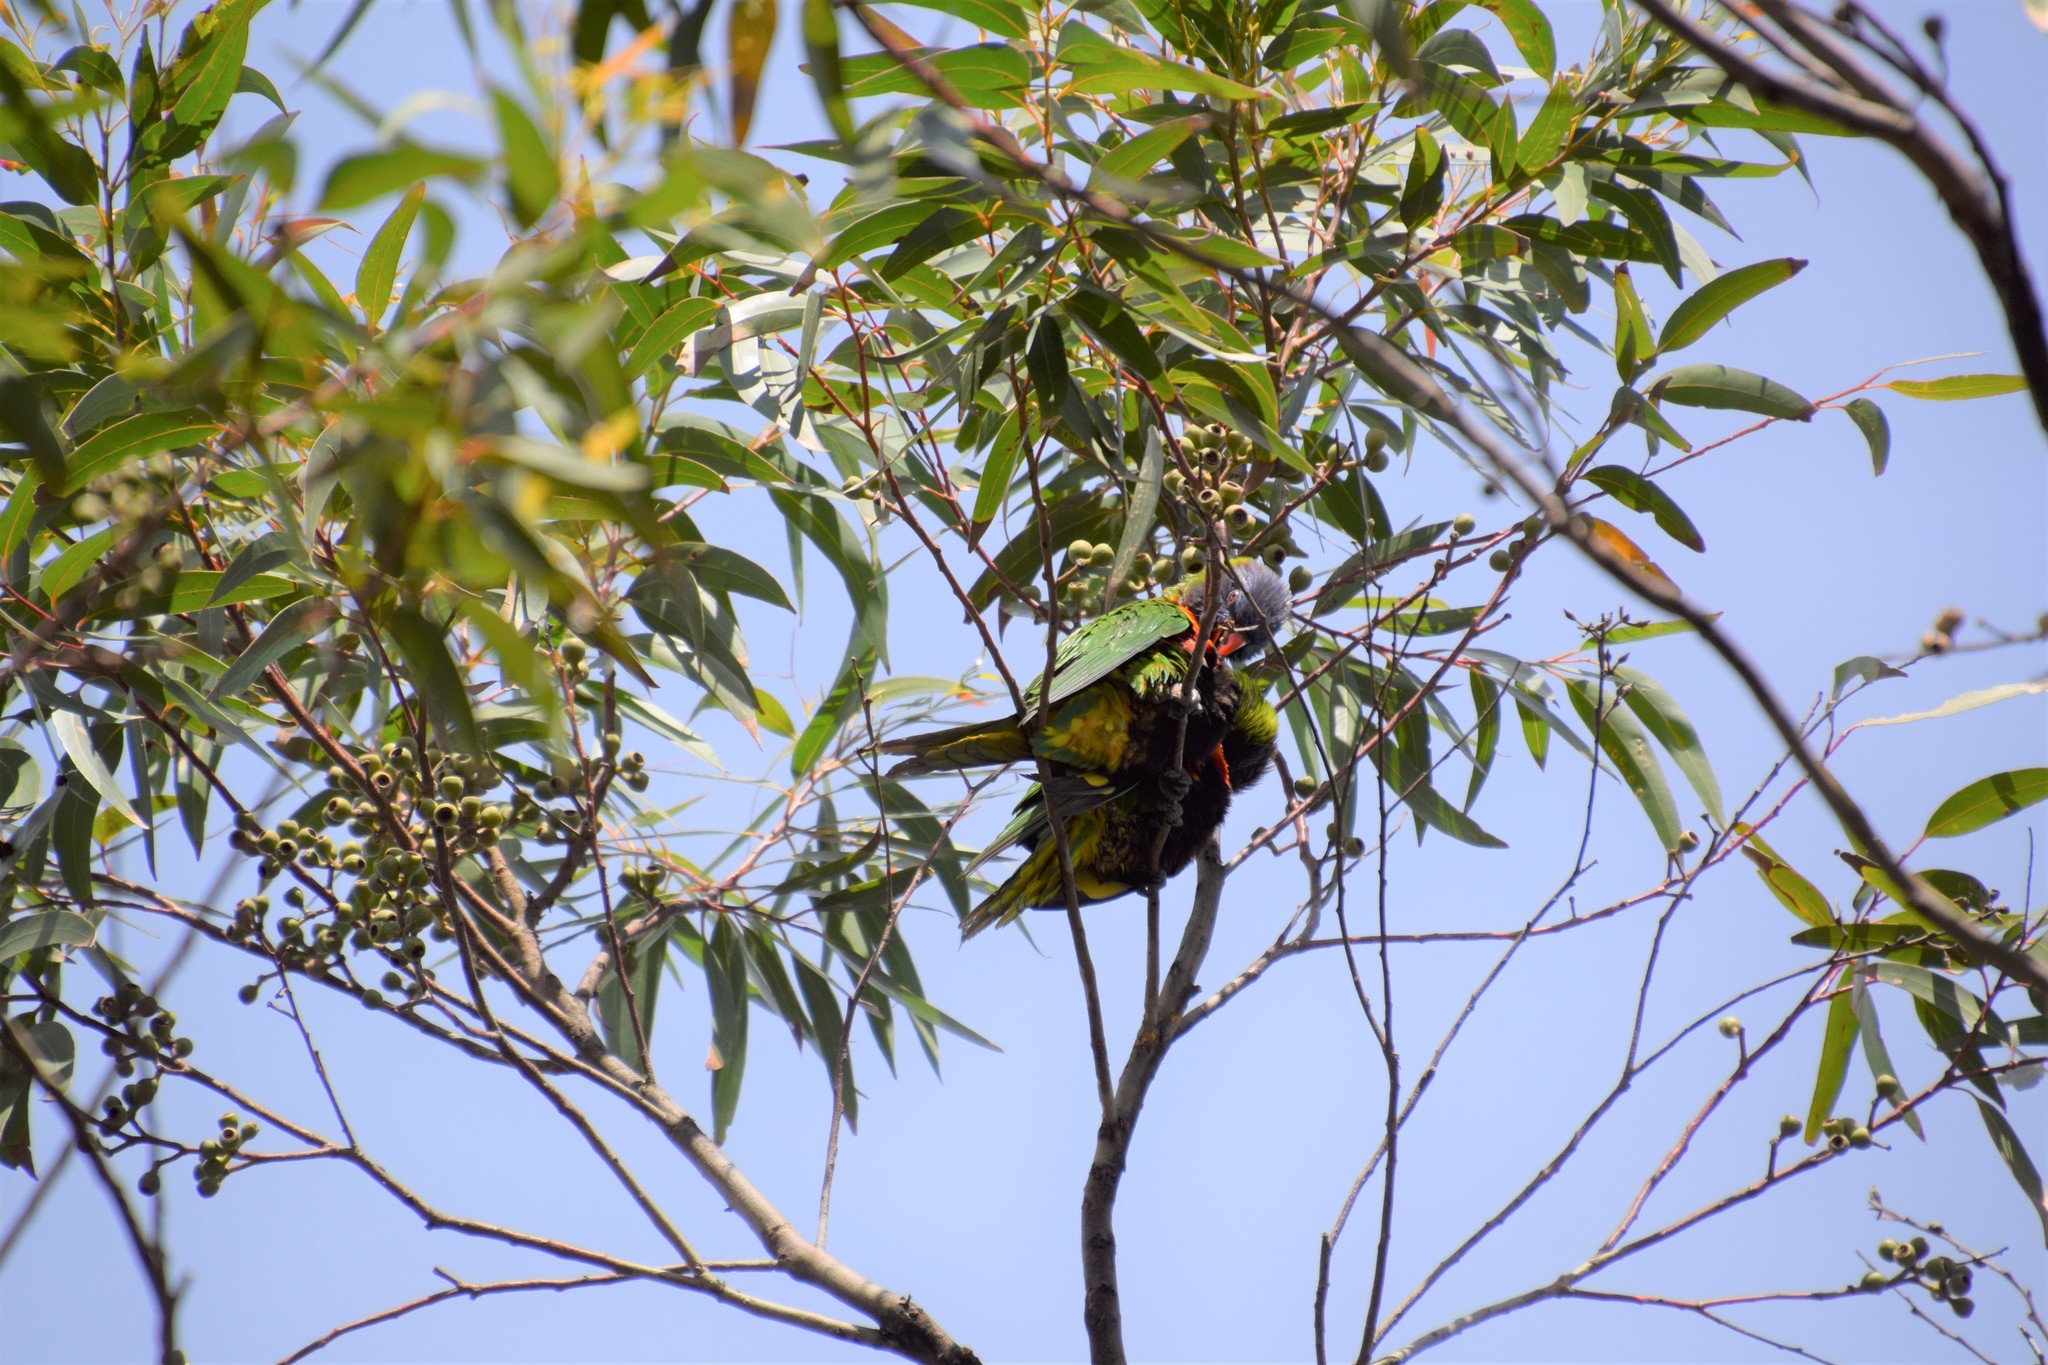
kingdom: Animalia
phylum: Chordata
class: Aves
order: Psittaciformes
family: Psittacidae
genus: Trichoglossus
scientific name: Trichoglossus haematodus
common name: Coconut lorikeet
